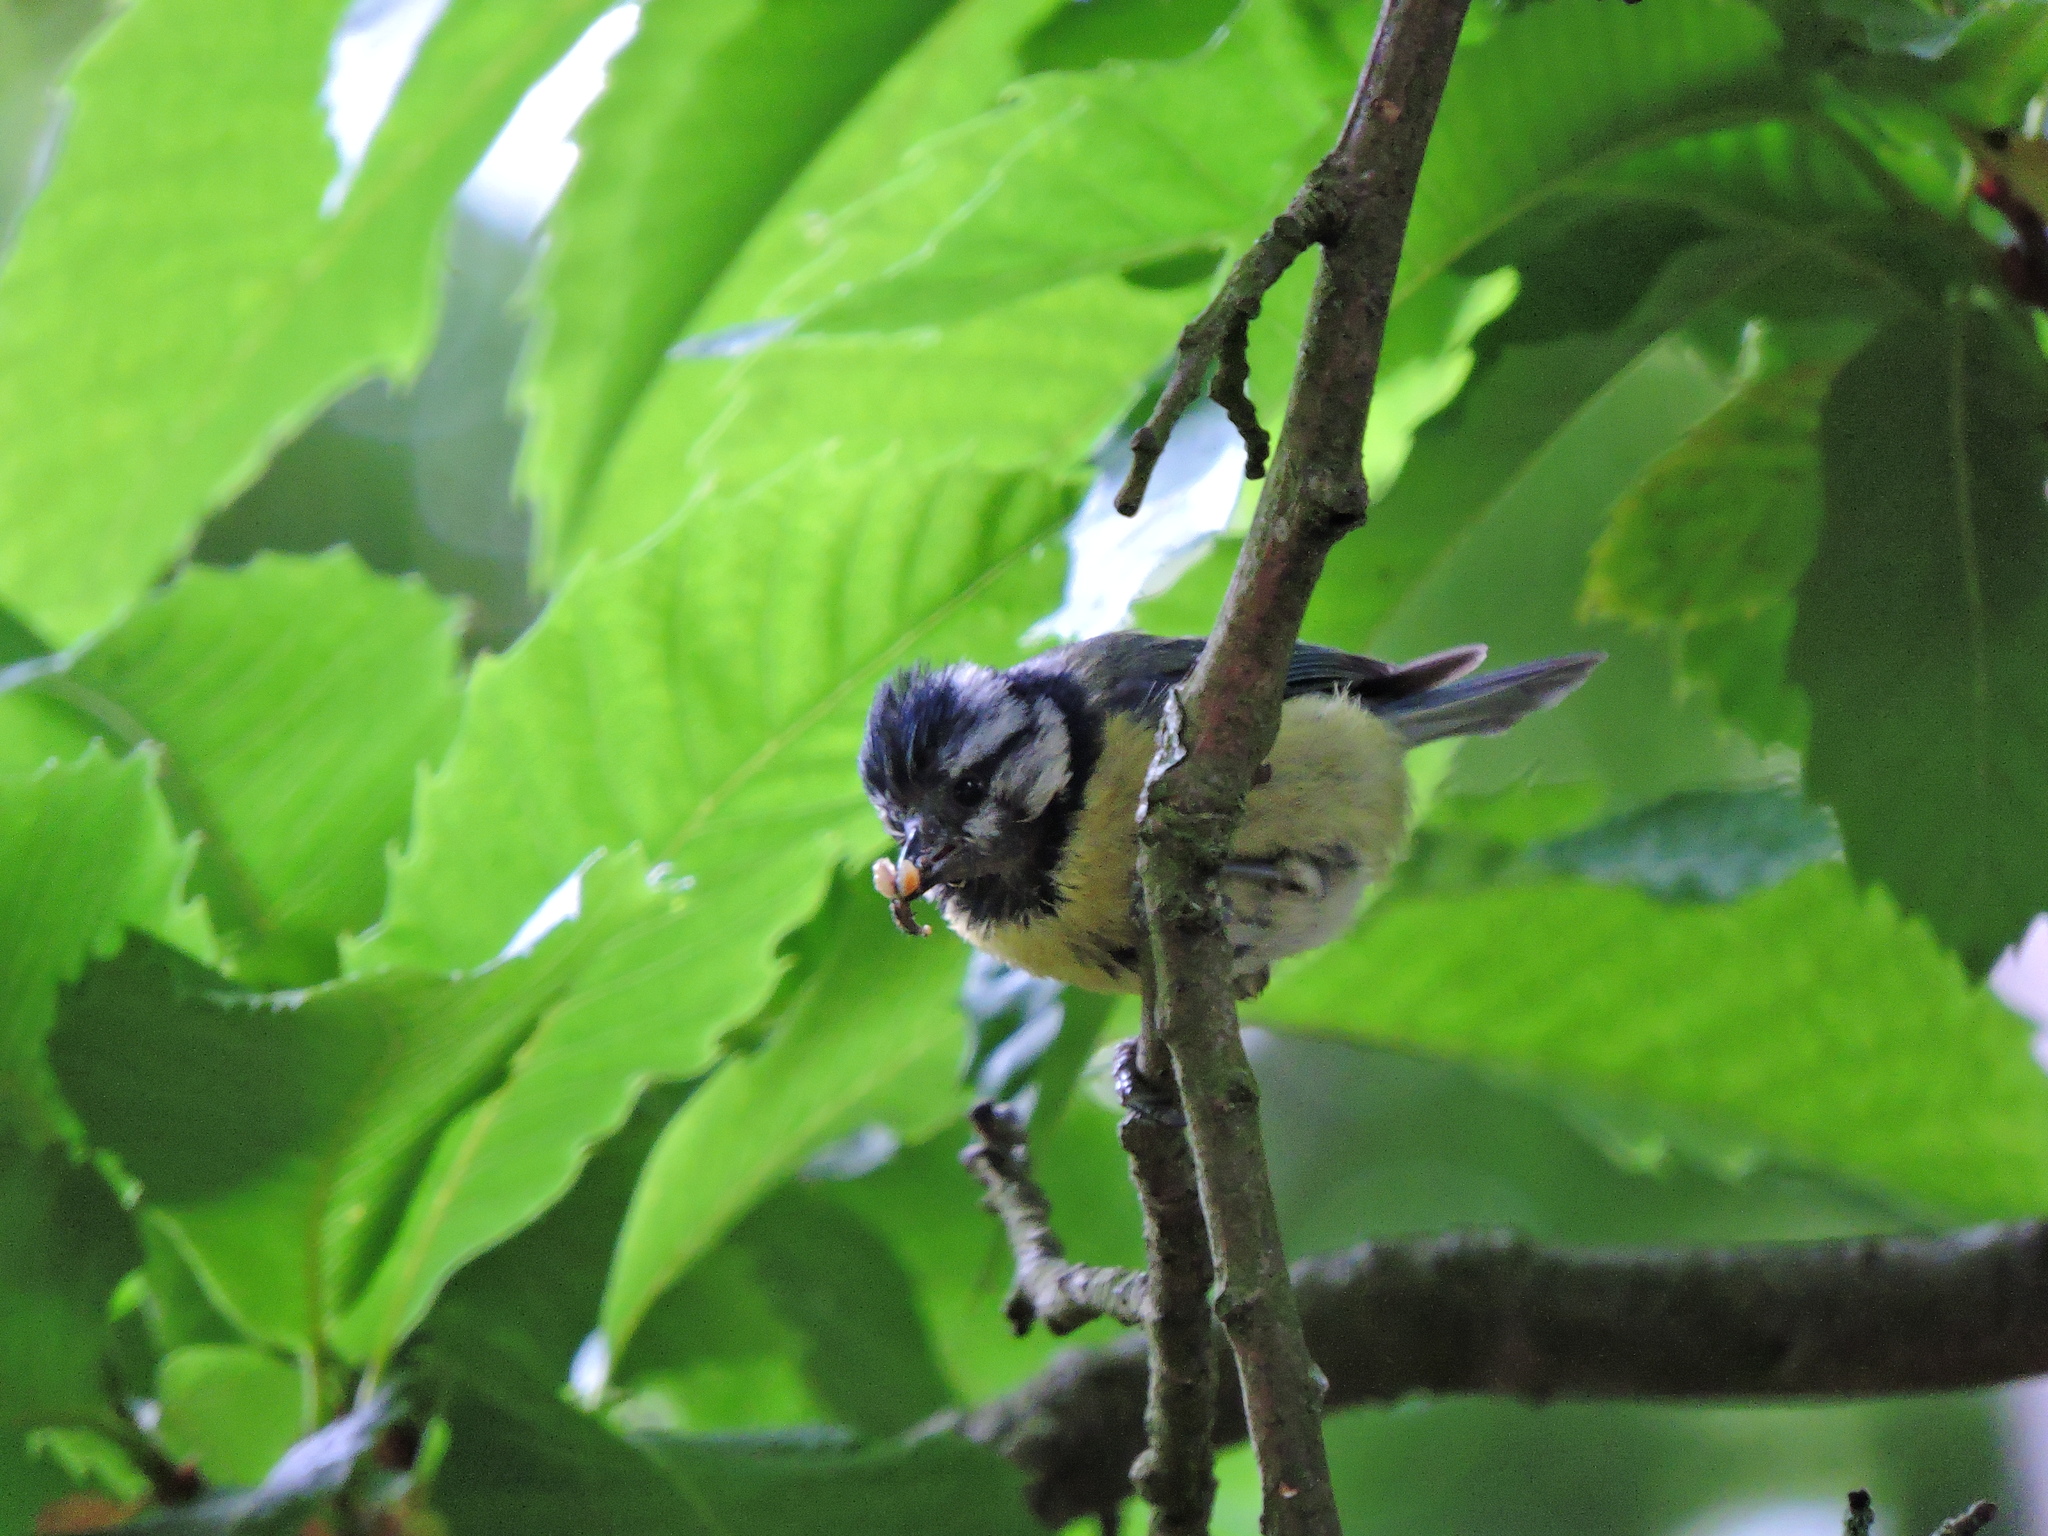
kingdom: Animalia
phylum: Chordata
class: Aves
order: Passeriformes
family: Paridae
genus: Cyanistes
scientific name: Cyanistes caeruleus
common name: Eurasian blue tit
